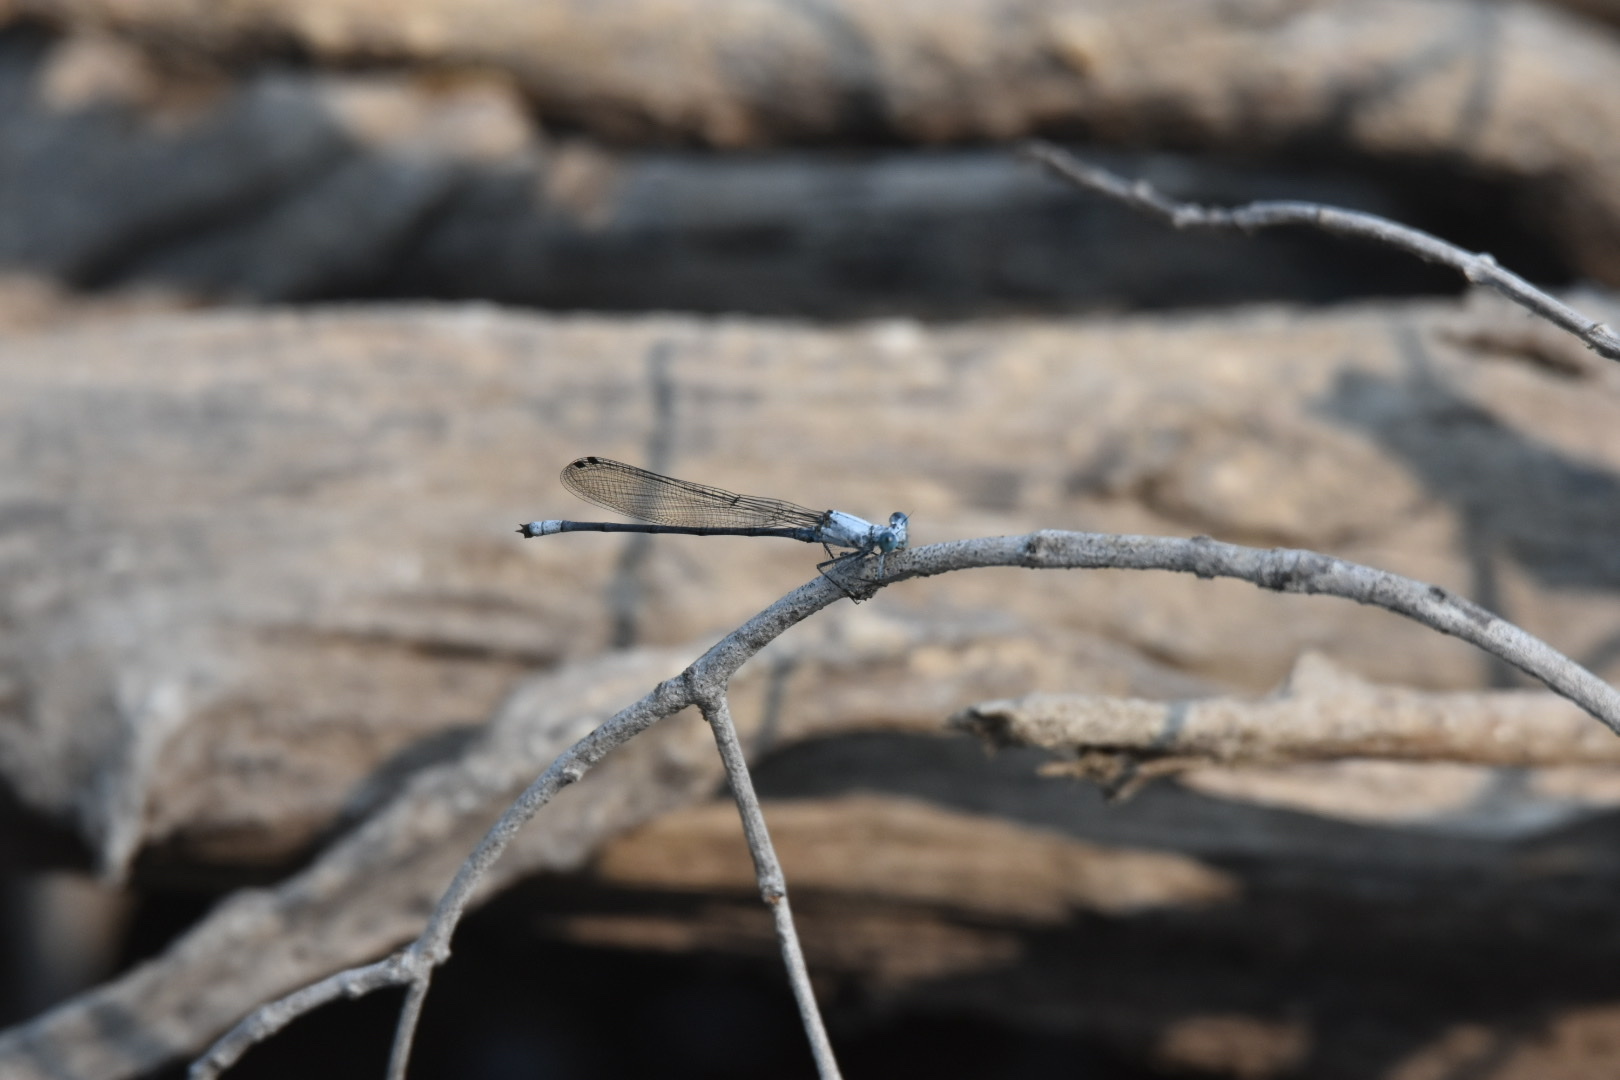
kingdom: Animalia
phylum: Arthropoda
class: Insecta
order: Odonata
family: Platycnemididae
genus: Mesocnemis
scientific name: Mesocnemis singularis
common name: Common riverjack
